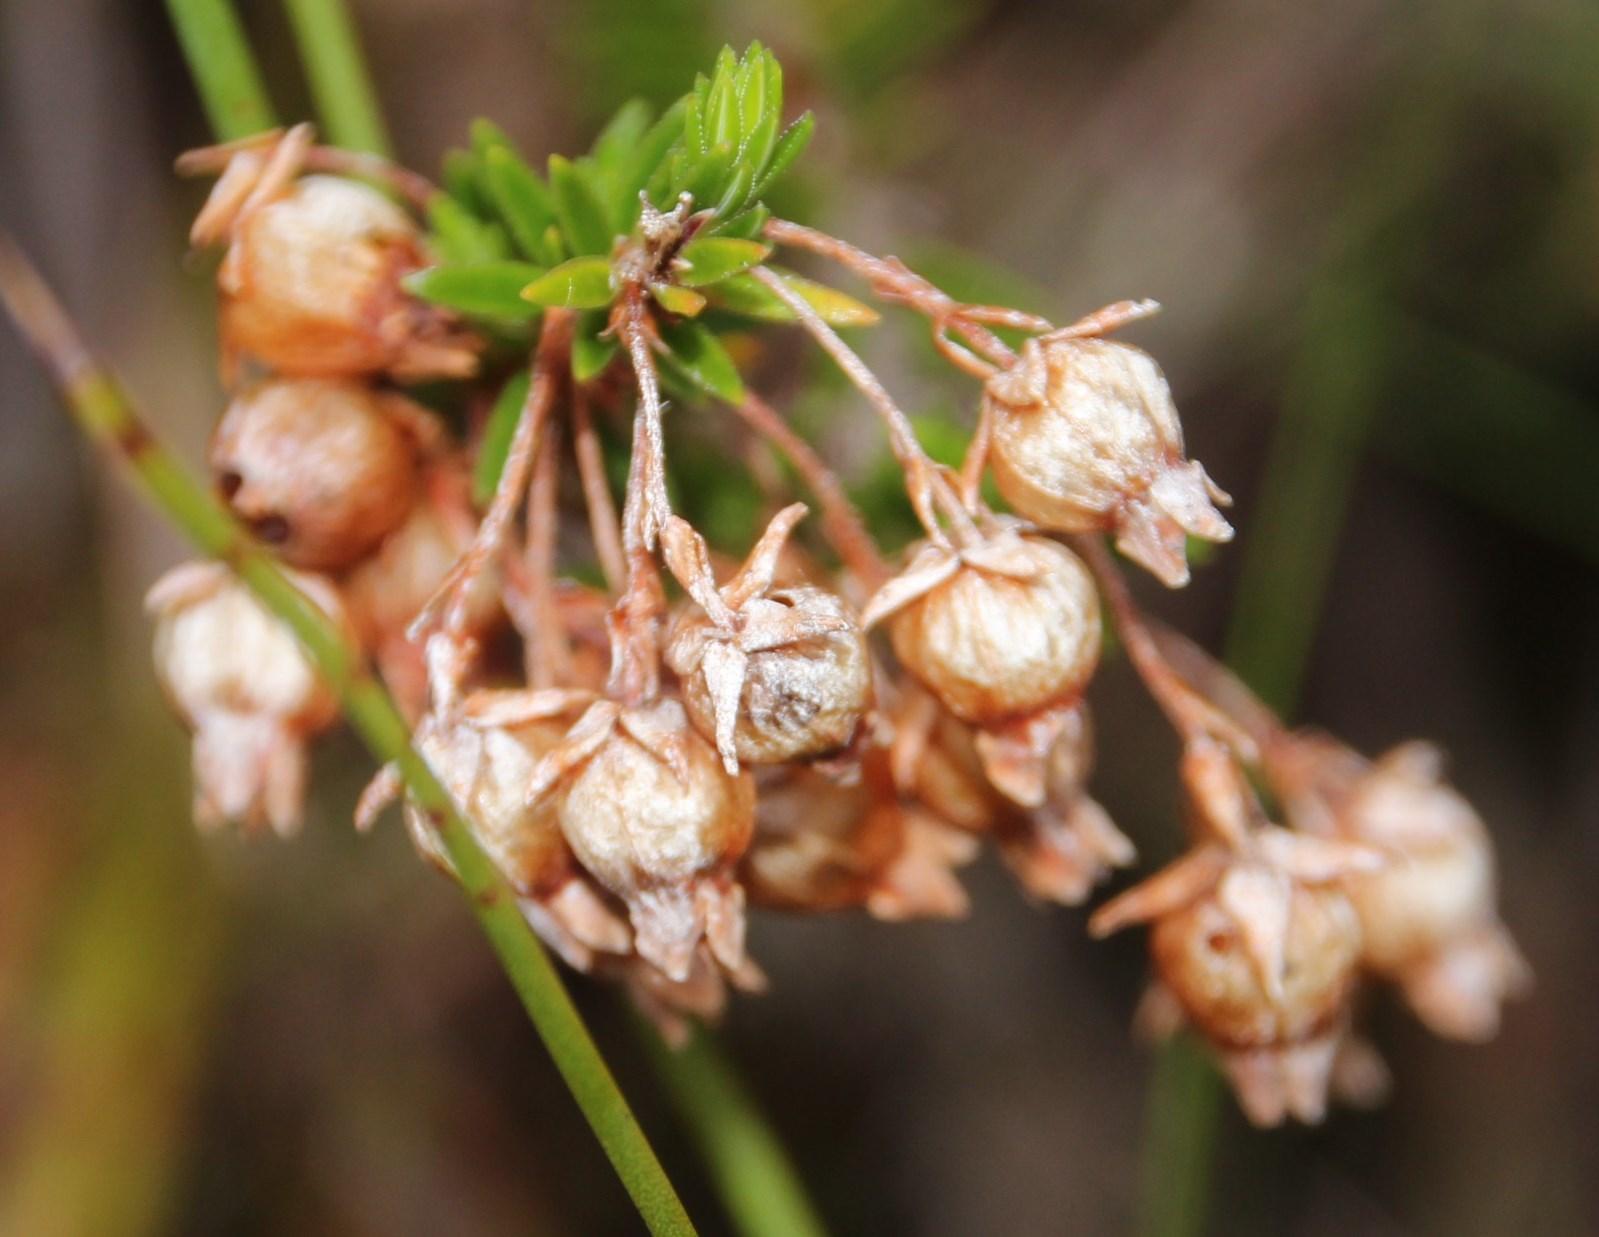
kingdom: Plantae
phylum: Tracheophyta
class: Magnoliopsida
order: Ericales
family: Ericaceae
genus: Erica
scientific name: Erica physodes
